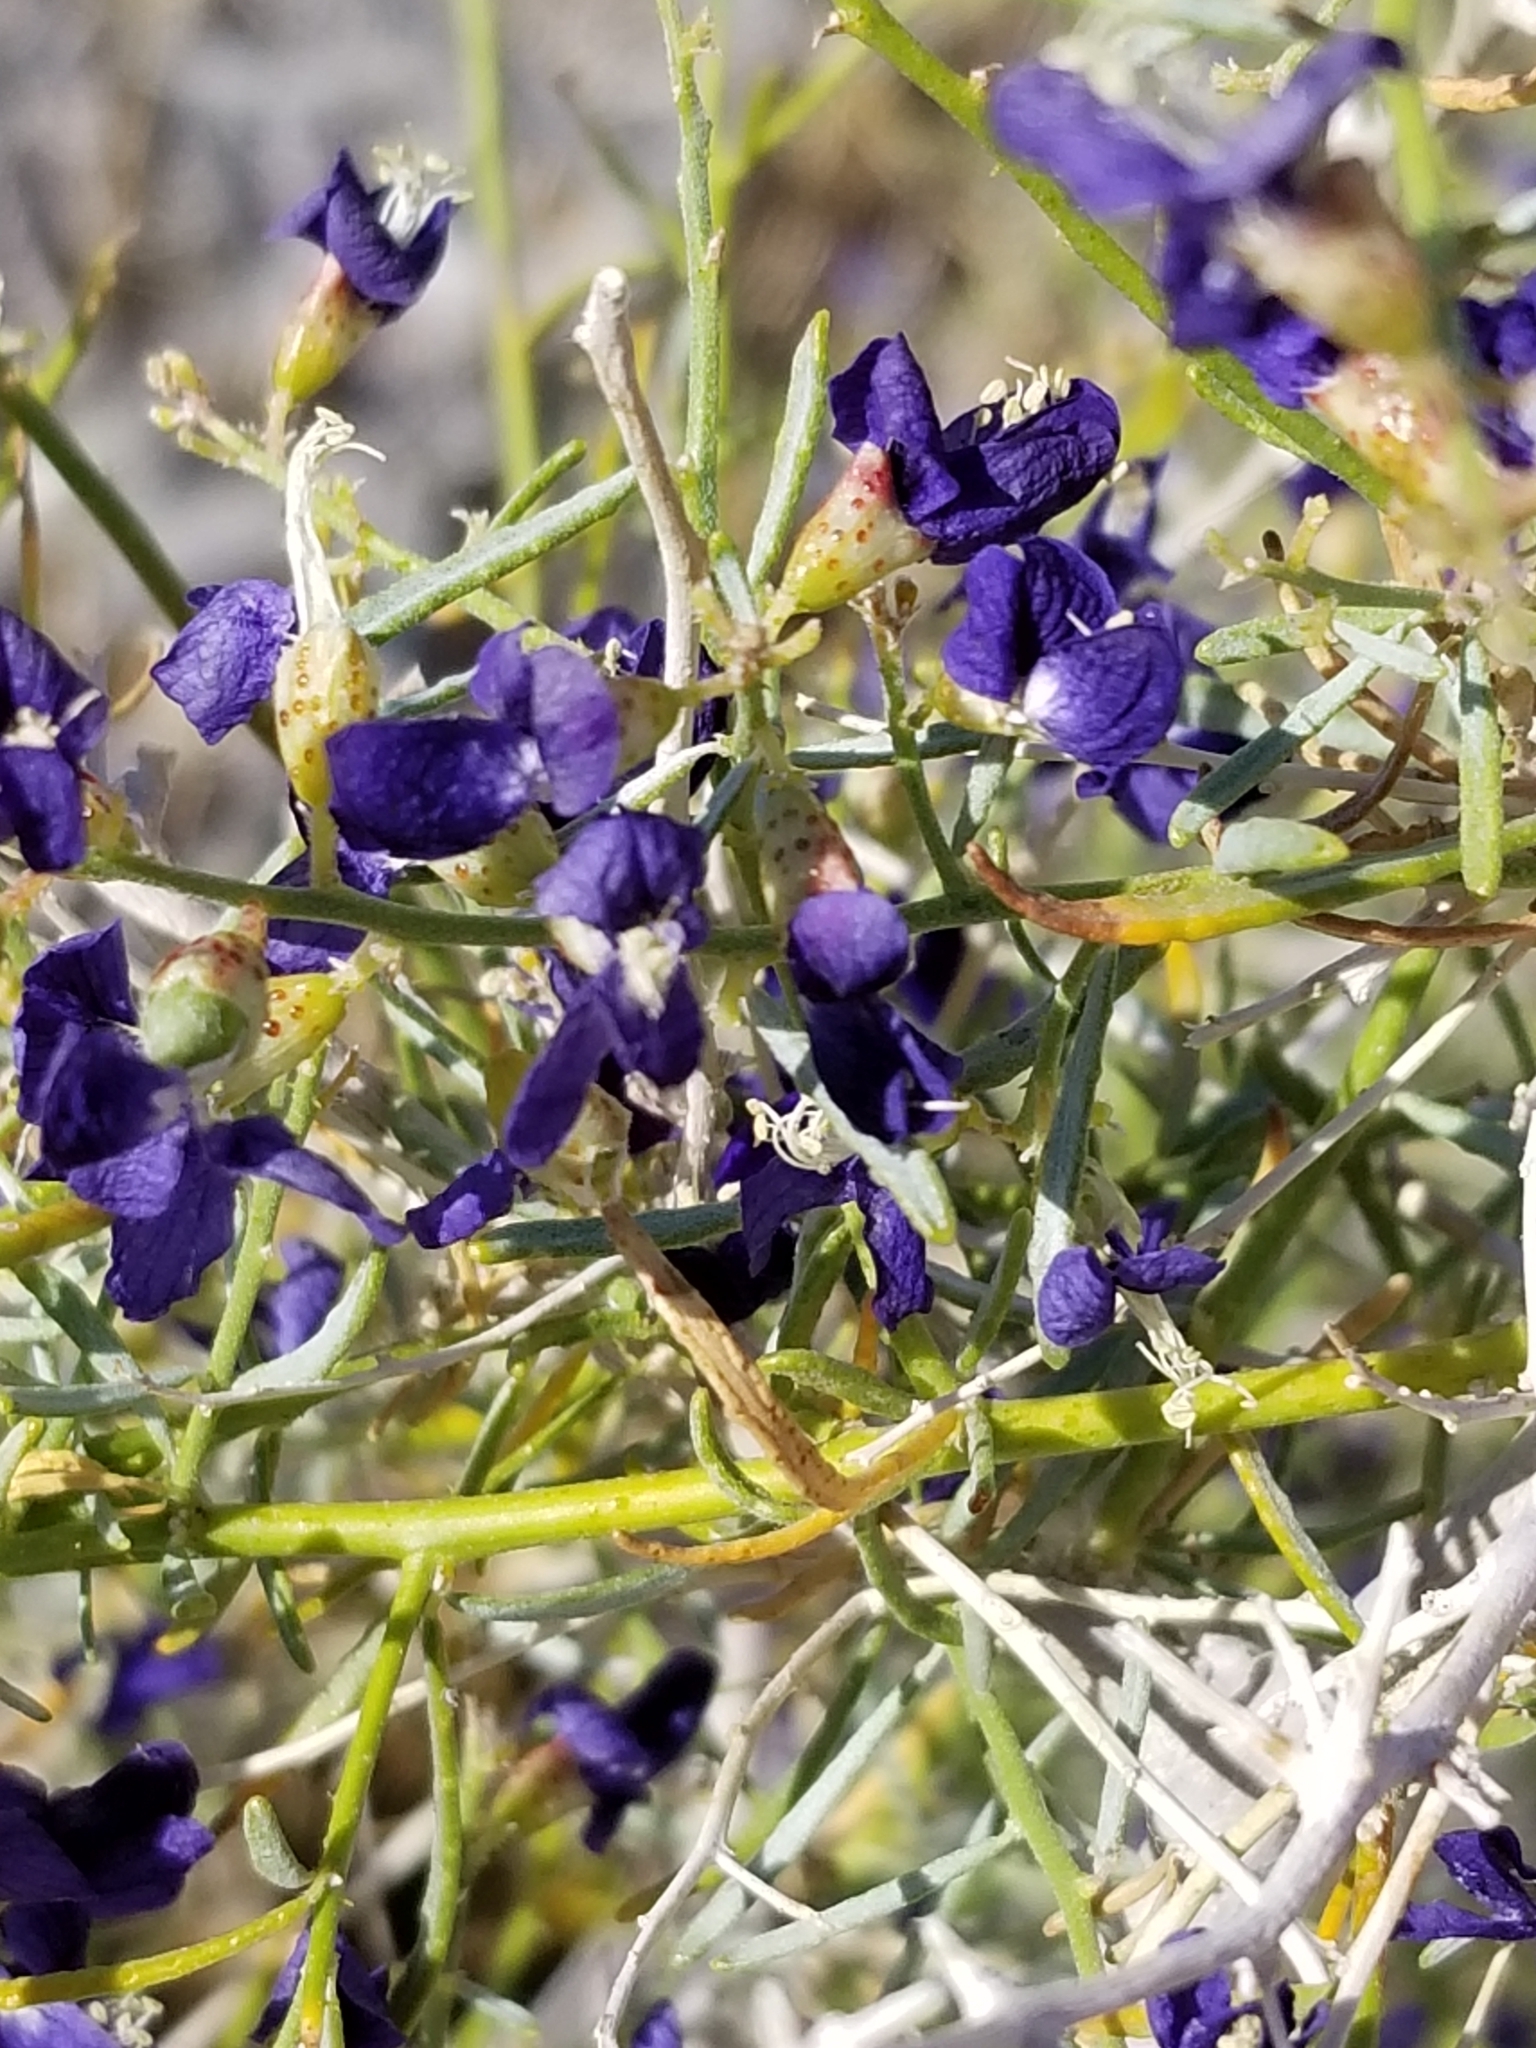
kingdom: Plantae
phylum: Tracheophyta
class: Magnoliopsida
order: Fabales
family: Fabaceae
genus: Psorothamnus
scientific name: Psorothamnus schottii
